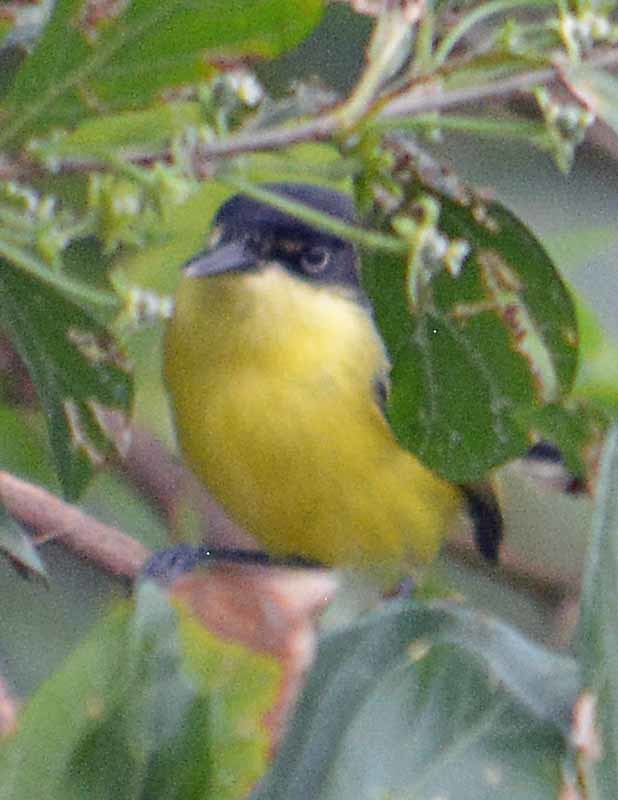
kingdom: Animalia
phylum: Chordata
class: Aves
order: Passeriformes
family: Tyrannidae
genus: Todirostrum
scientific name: Todirostrum cinereum
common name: Common tody-flycatcher
